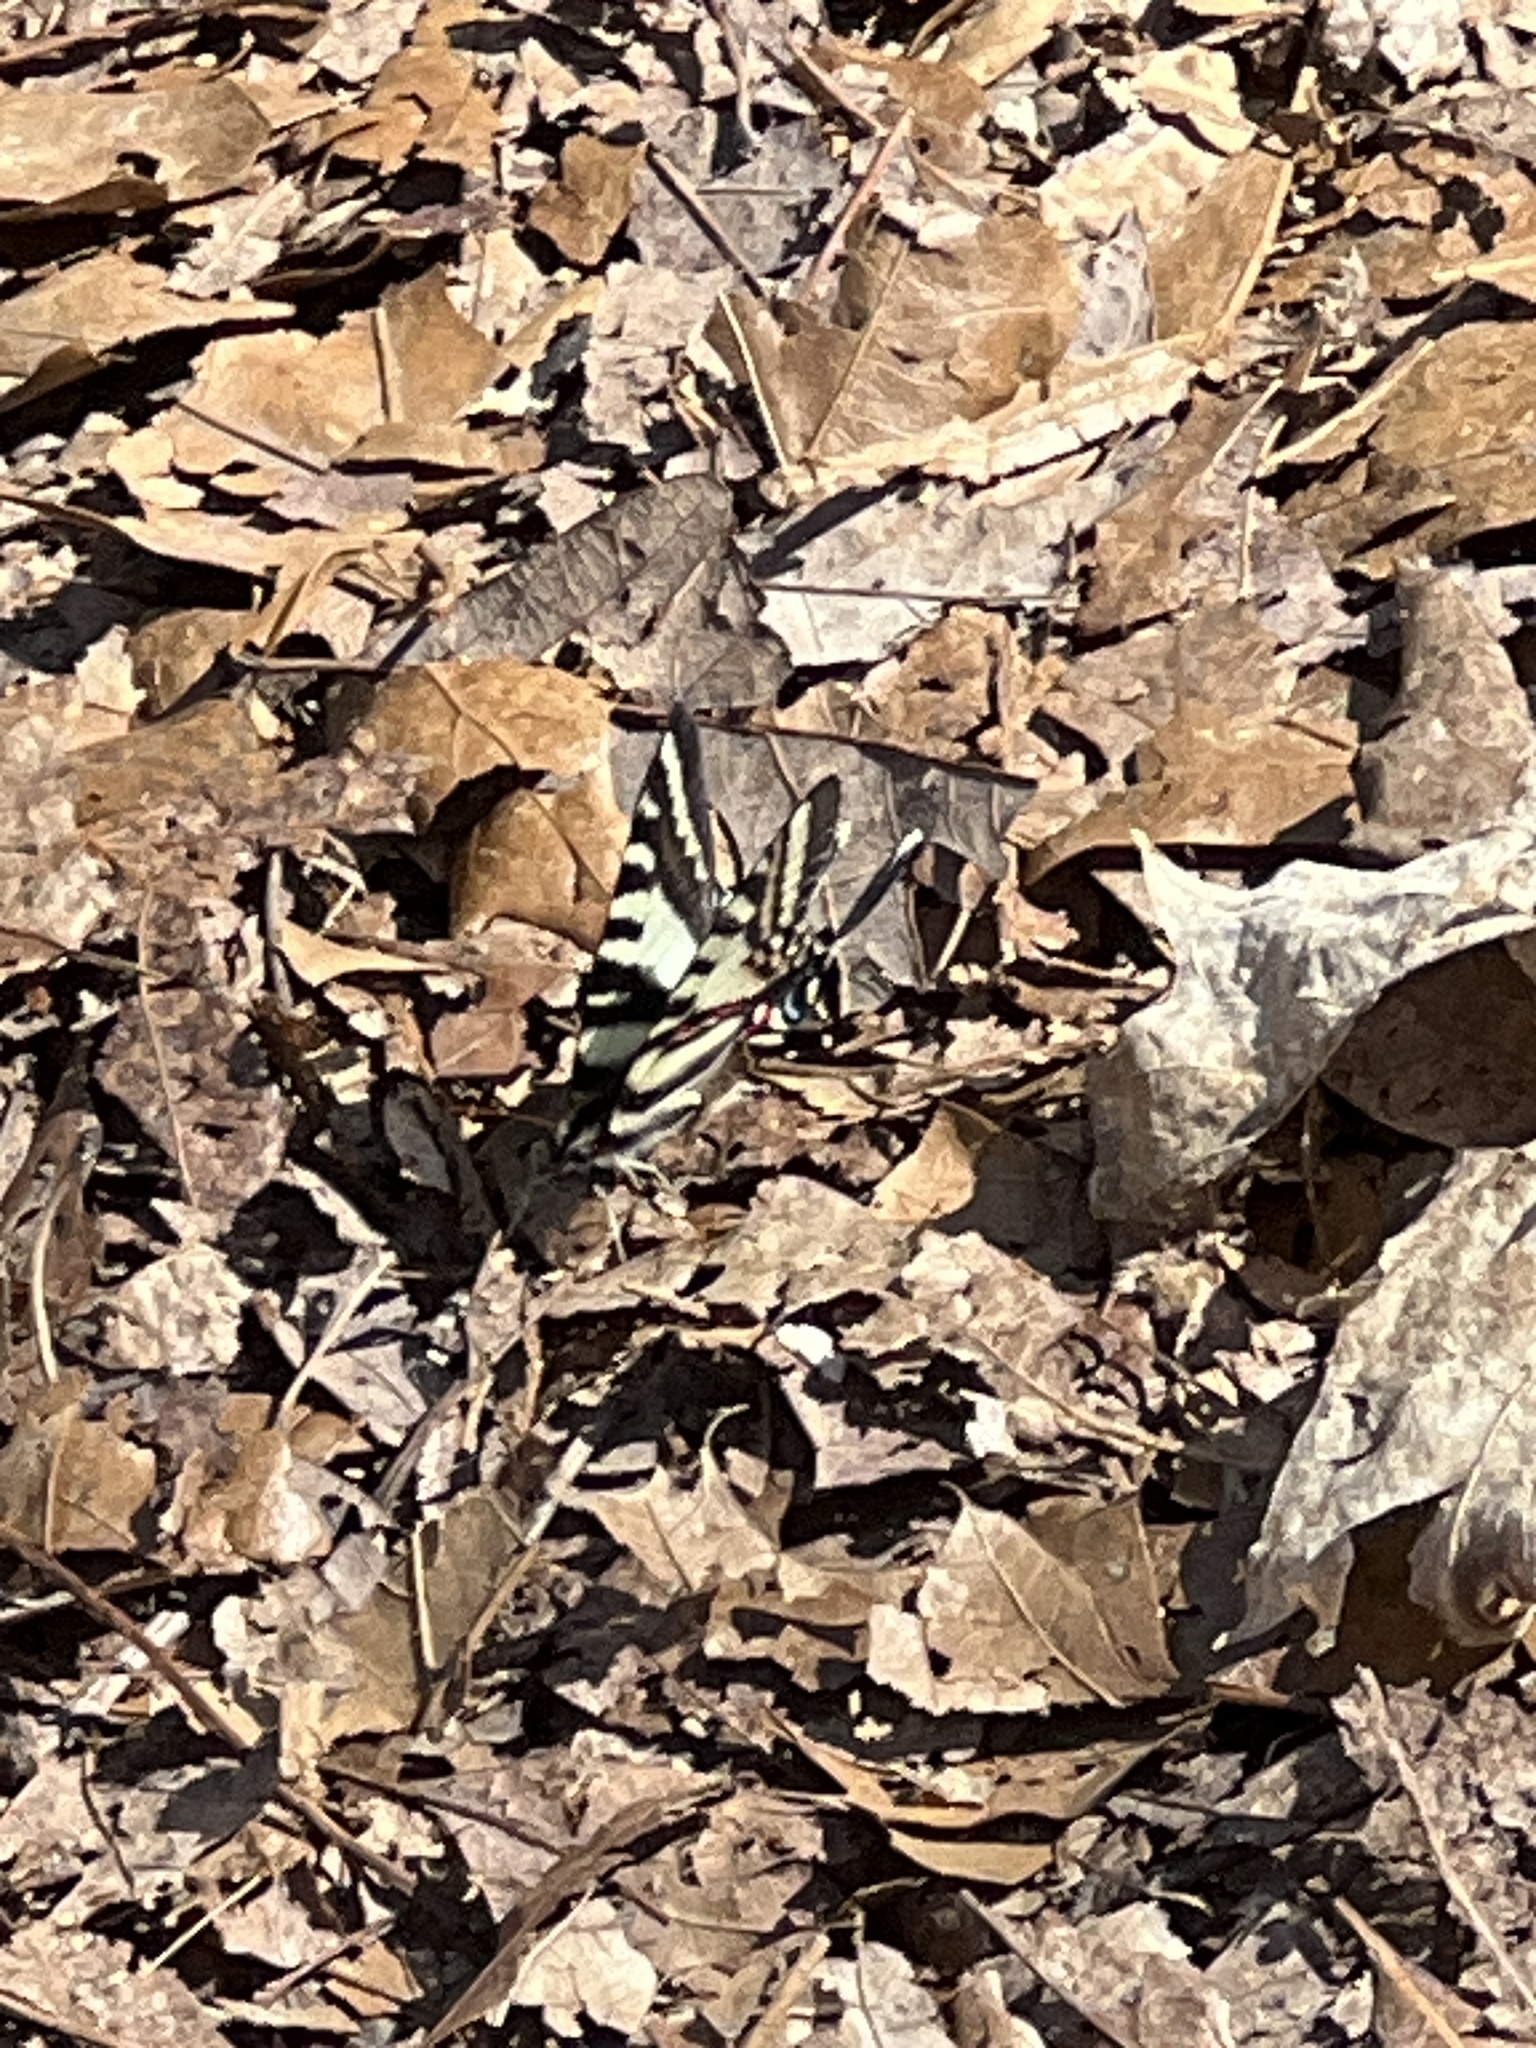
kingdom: Animalia
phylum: Arthropoda
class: Insecta
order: Lepidoptera
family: Papilionidae
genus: Protographium
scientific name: Protographium marcellus
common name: Zebra swallowtail
